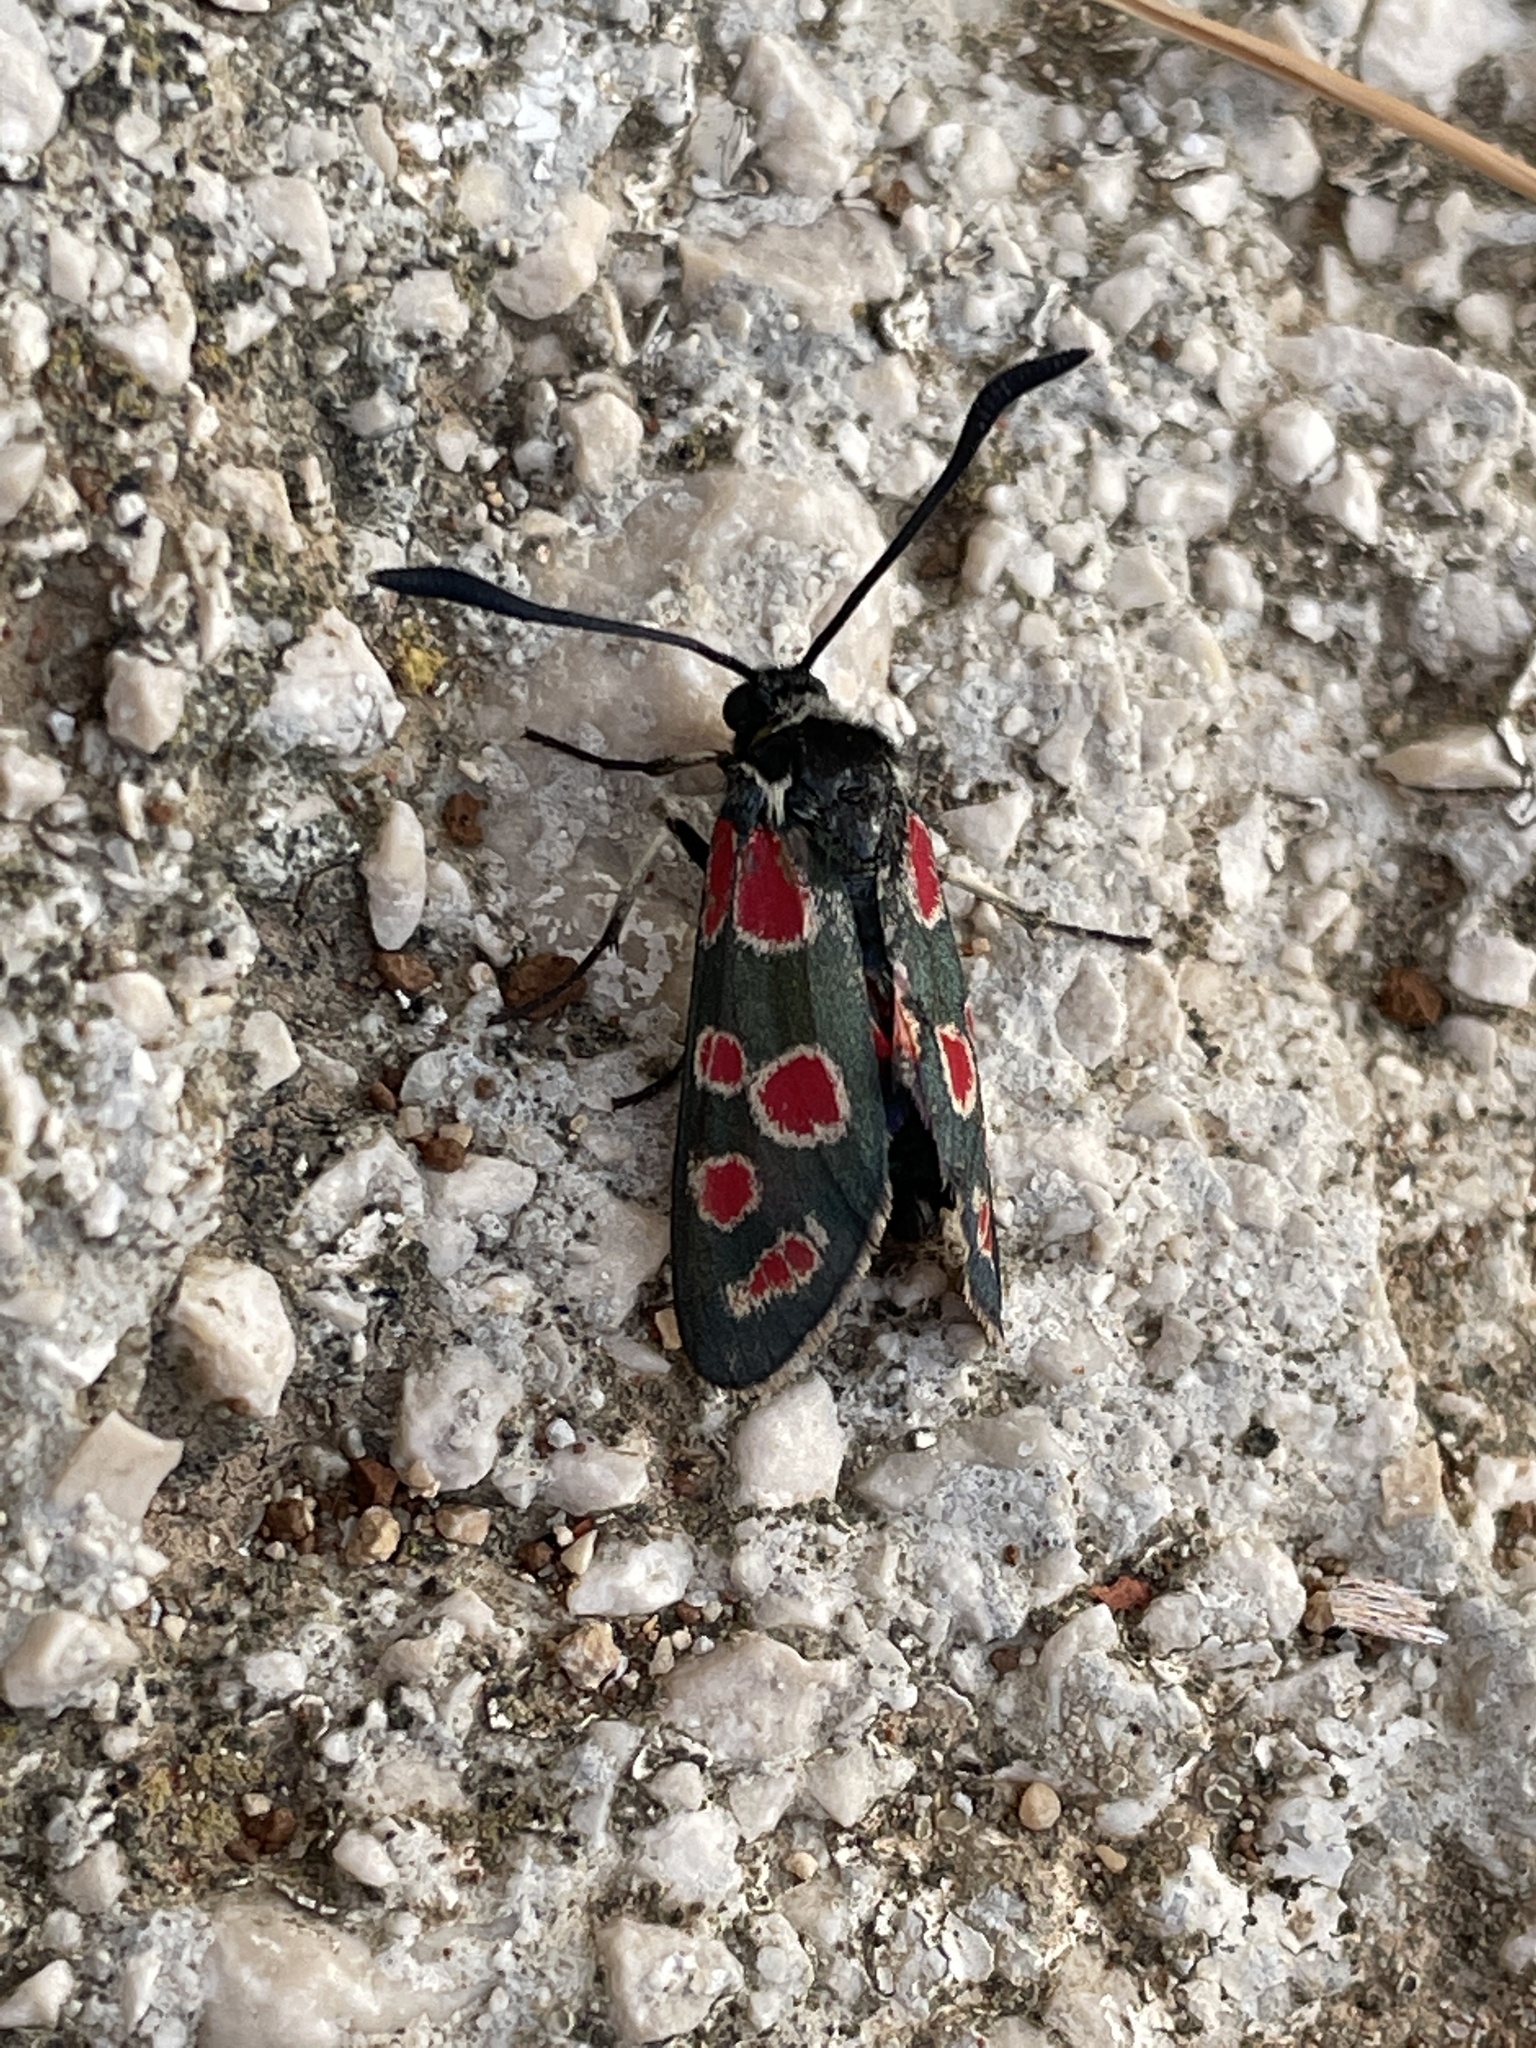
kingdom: Animalia
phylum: Arthropoda
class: Insecta
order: Lepidoptera
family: Zygaenidae
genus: Zygaena
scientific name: Zygaena carniolica
